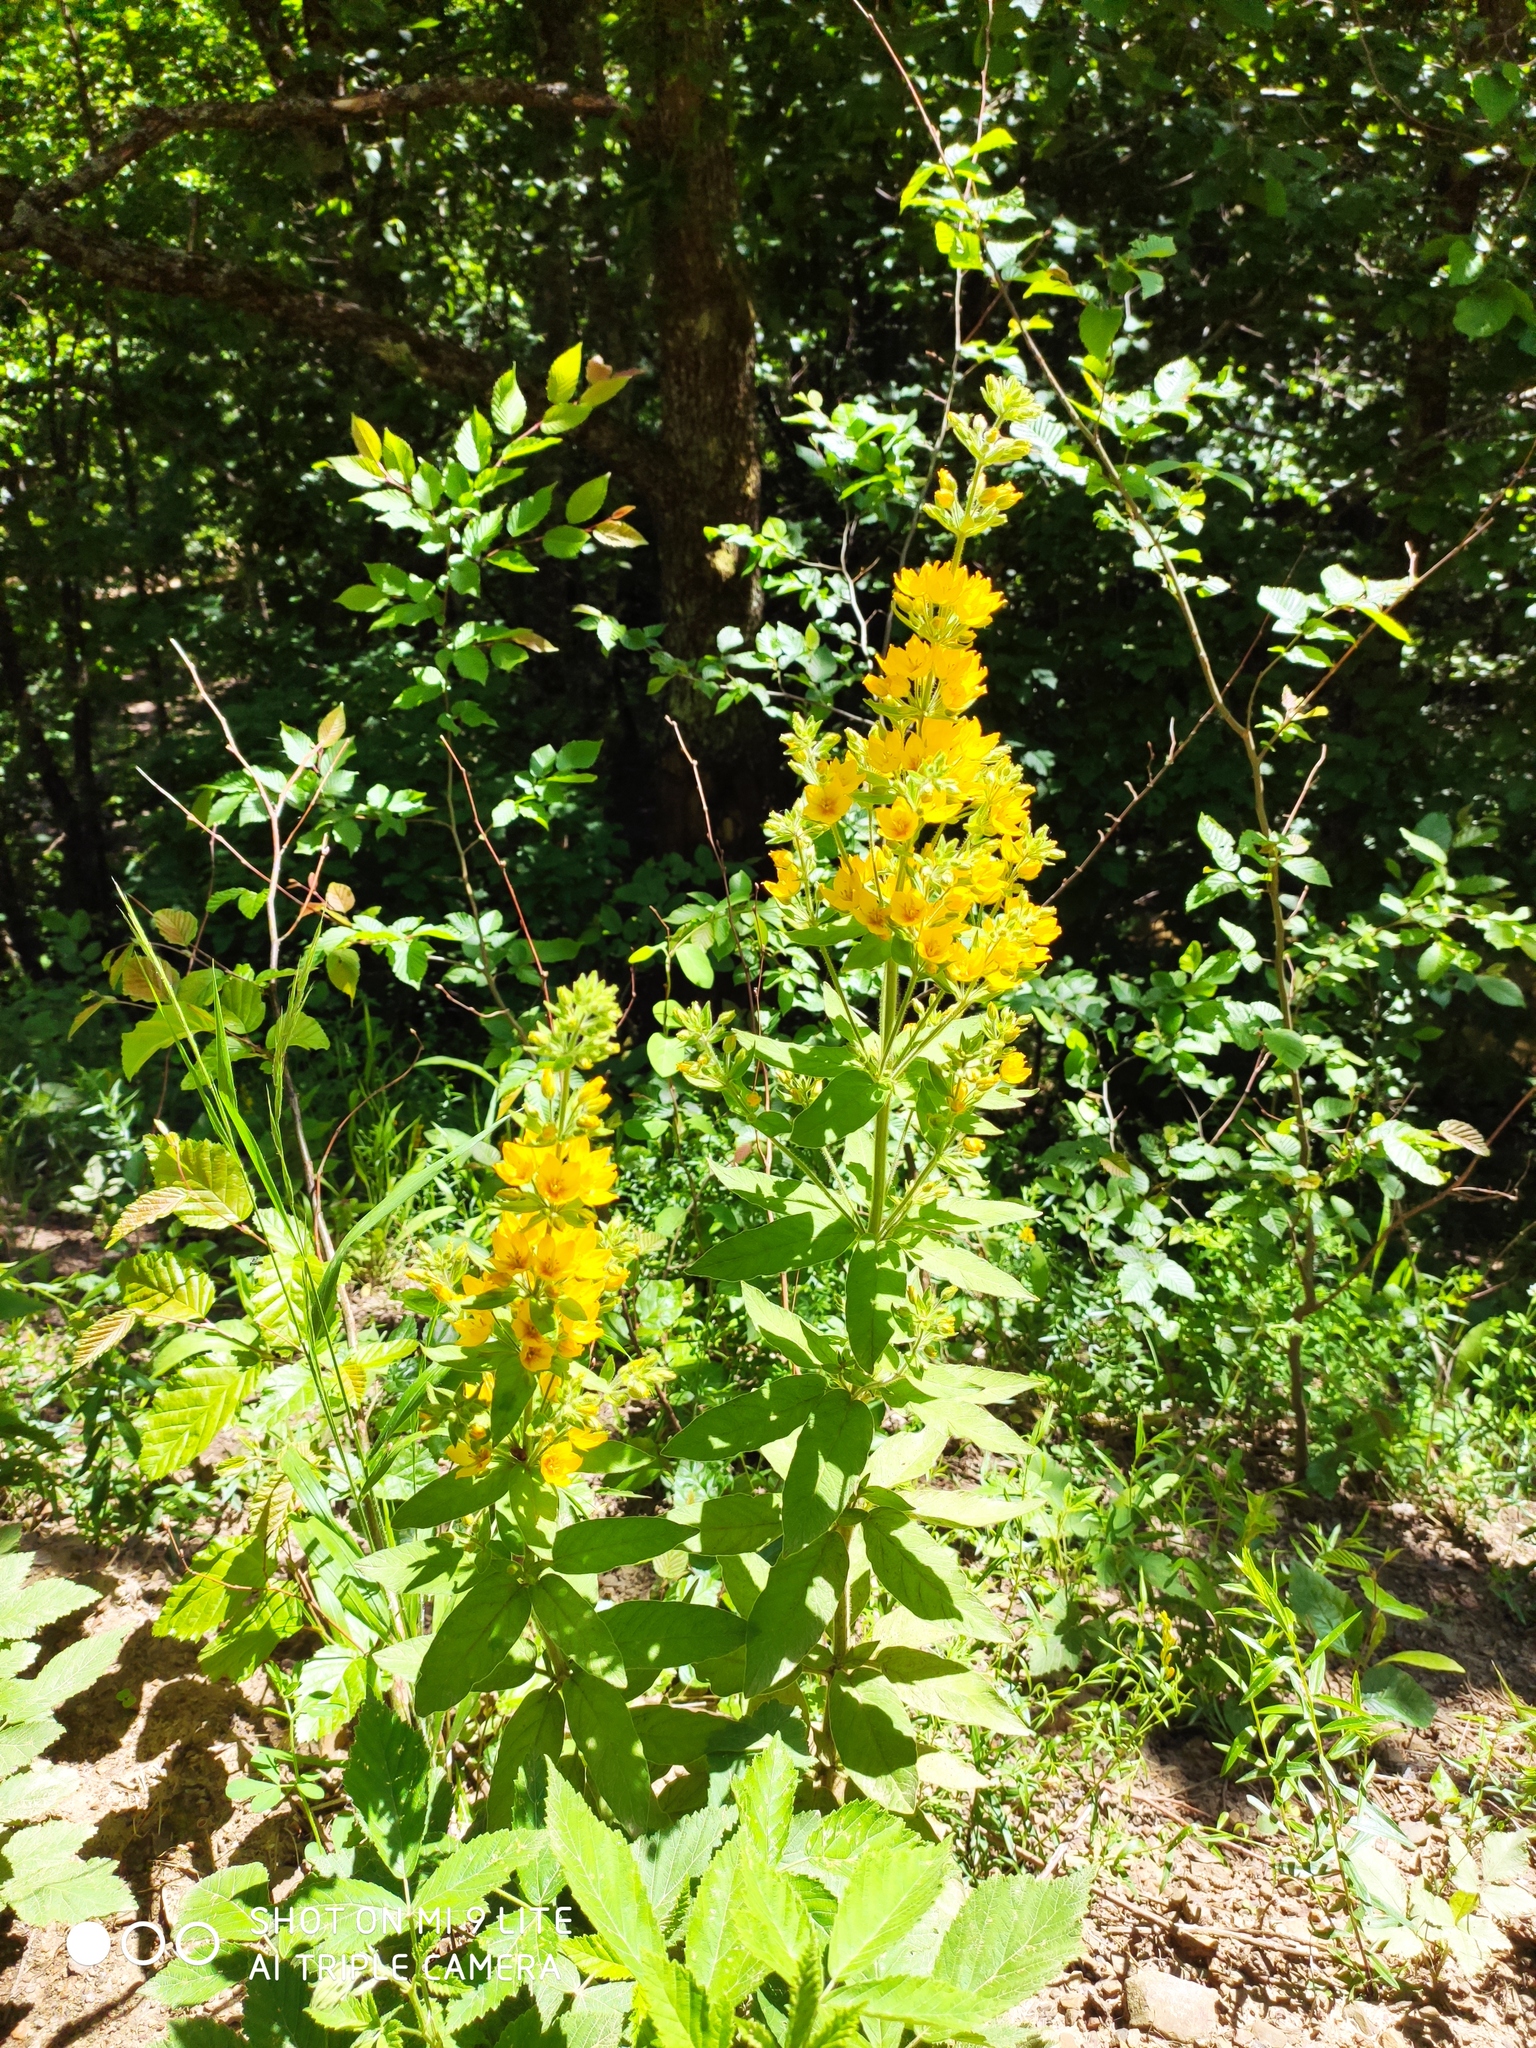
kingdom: Plantae
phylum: Tracheophyta
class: Magnoliopsida
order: Ericales
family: Primulaceae
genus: Lysimachia
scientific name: Lysimachia verticillaris
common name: Yellow loosestrife
